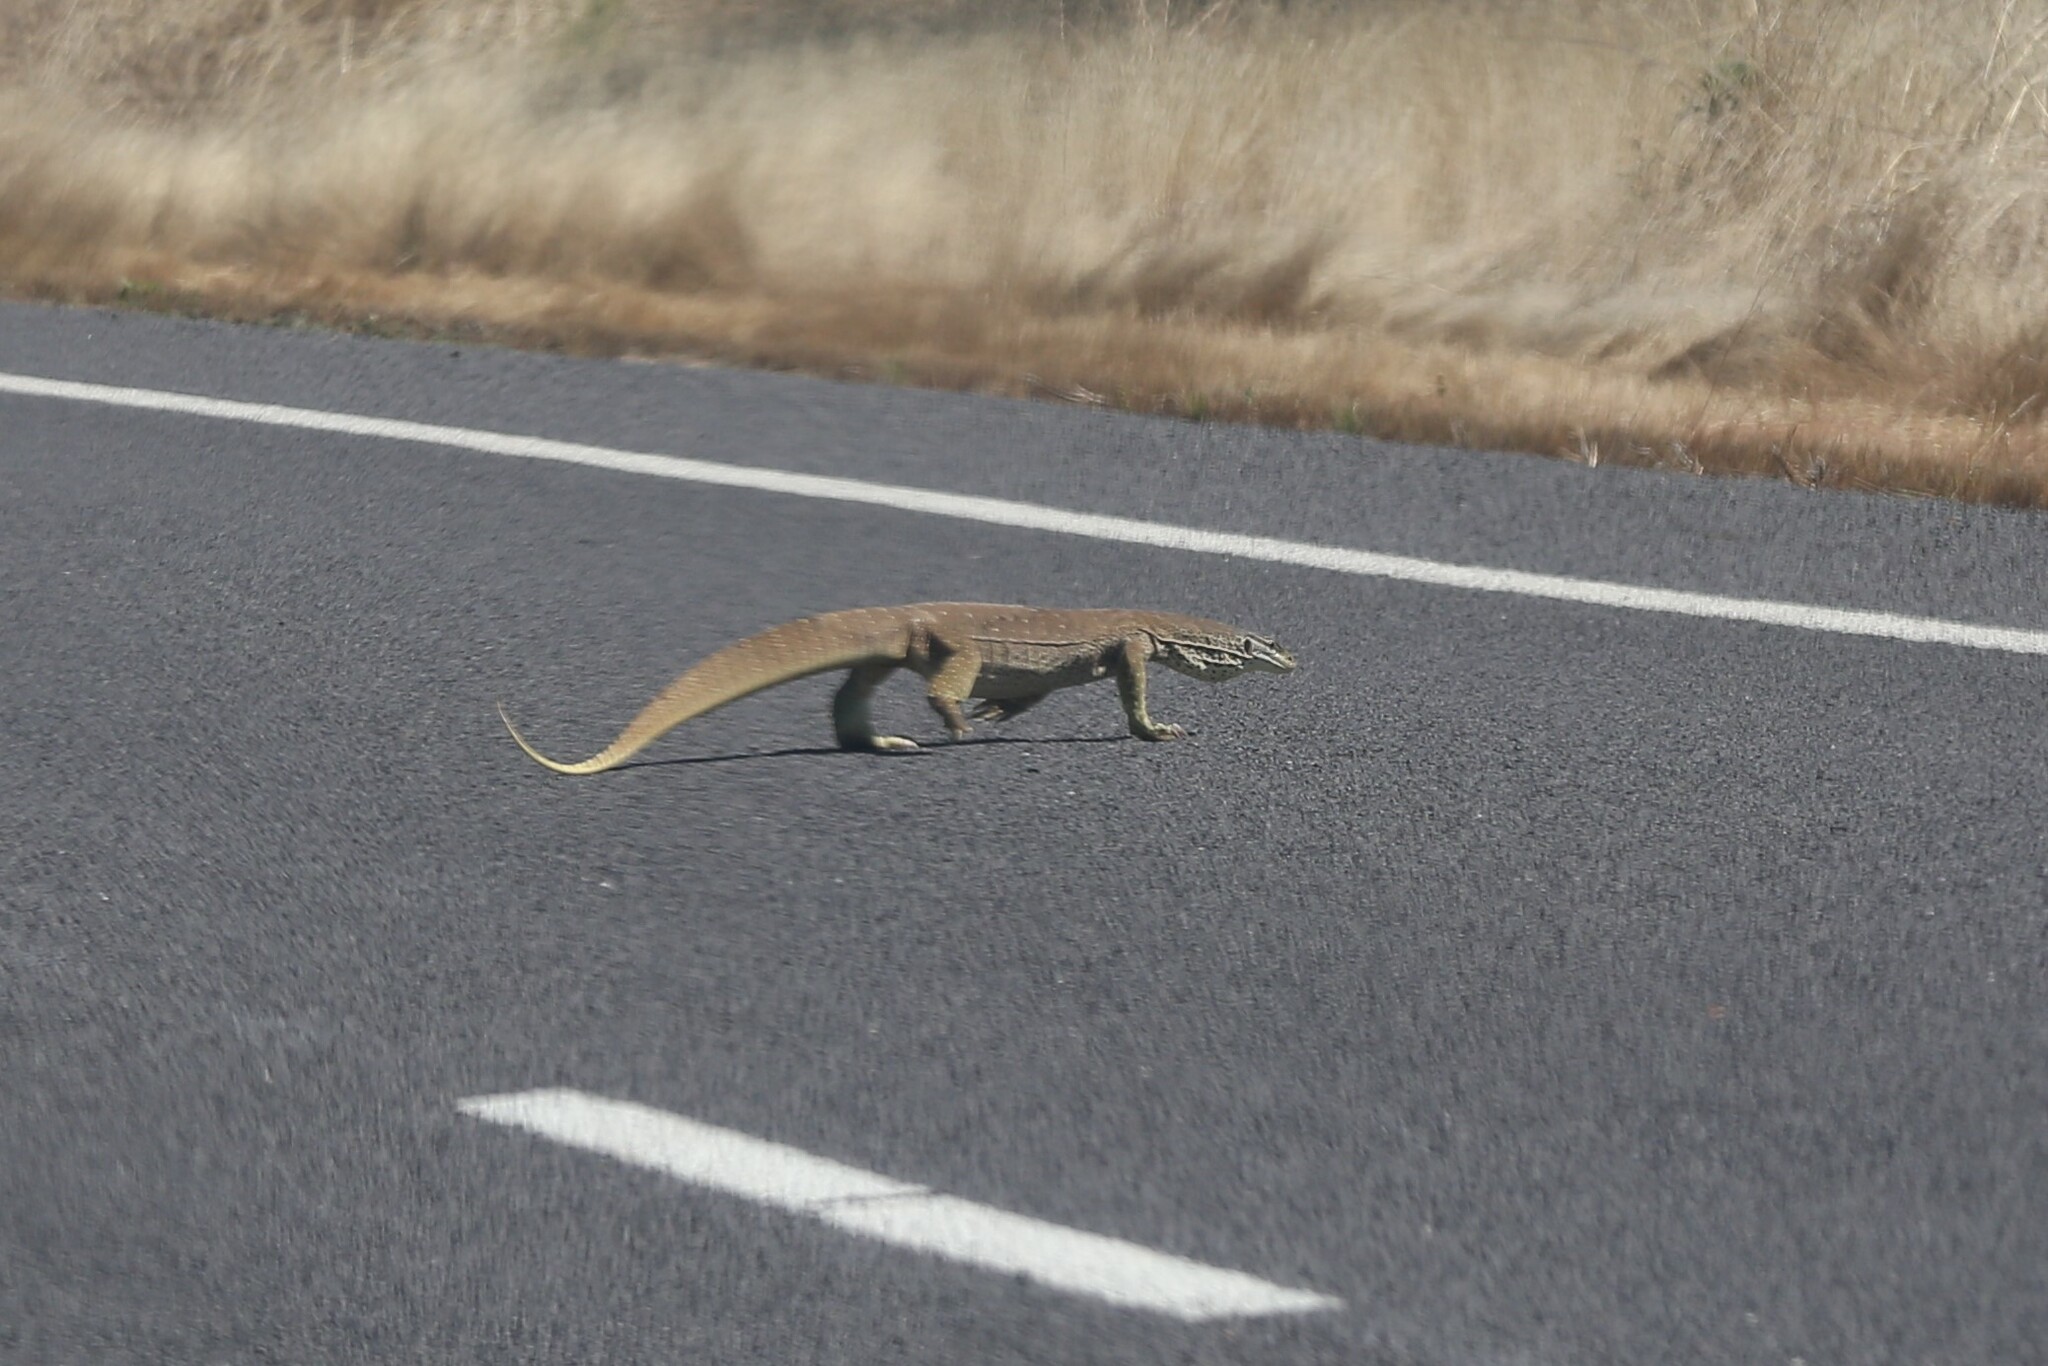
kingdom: Animalia
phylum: Chordata
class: Squamata
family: Varanidae
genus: Varanus
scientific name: Varanus panoptes
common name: Yellow-spotted monitor
